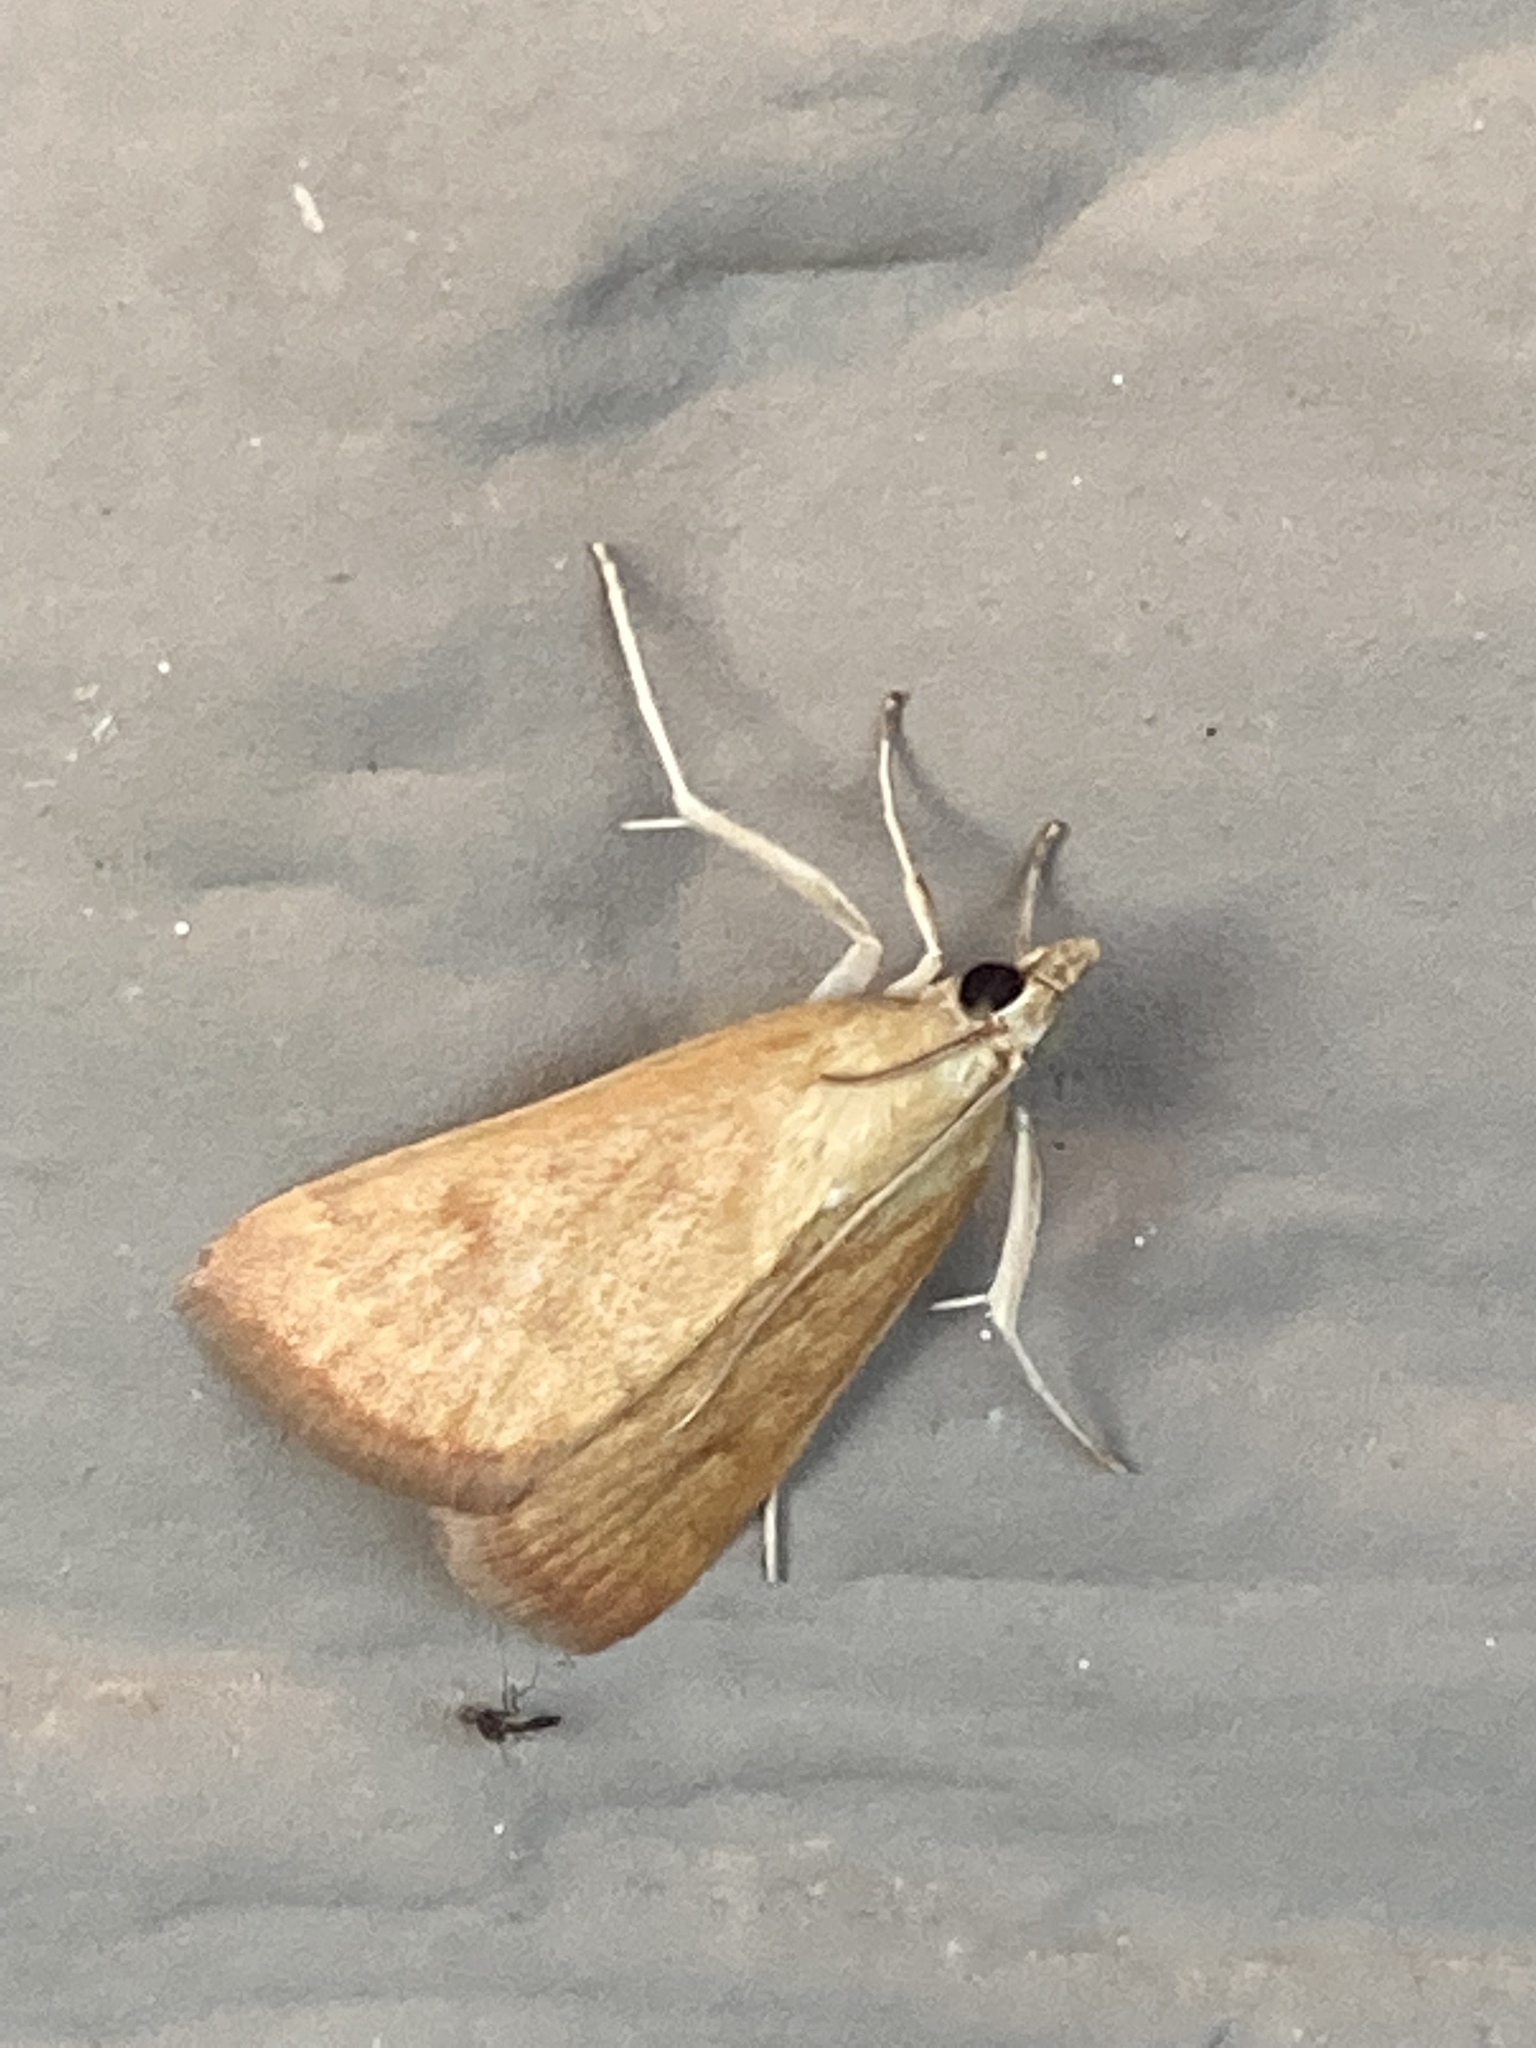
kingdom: Animalia
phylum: Arthropoda
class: Insecta
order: Lepidoptera
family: Crambidae
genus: Achyra
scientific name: Achyra rantalis
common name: Garden webworm
